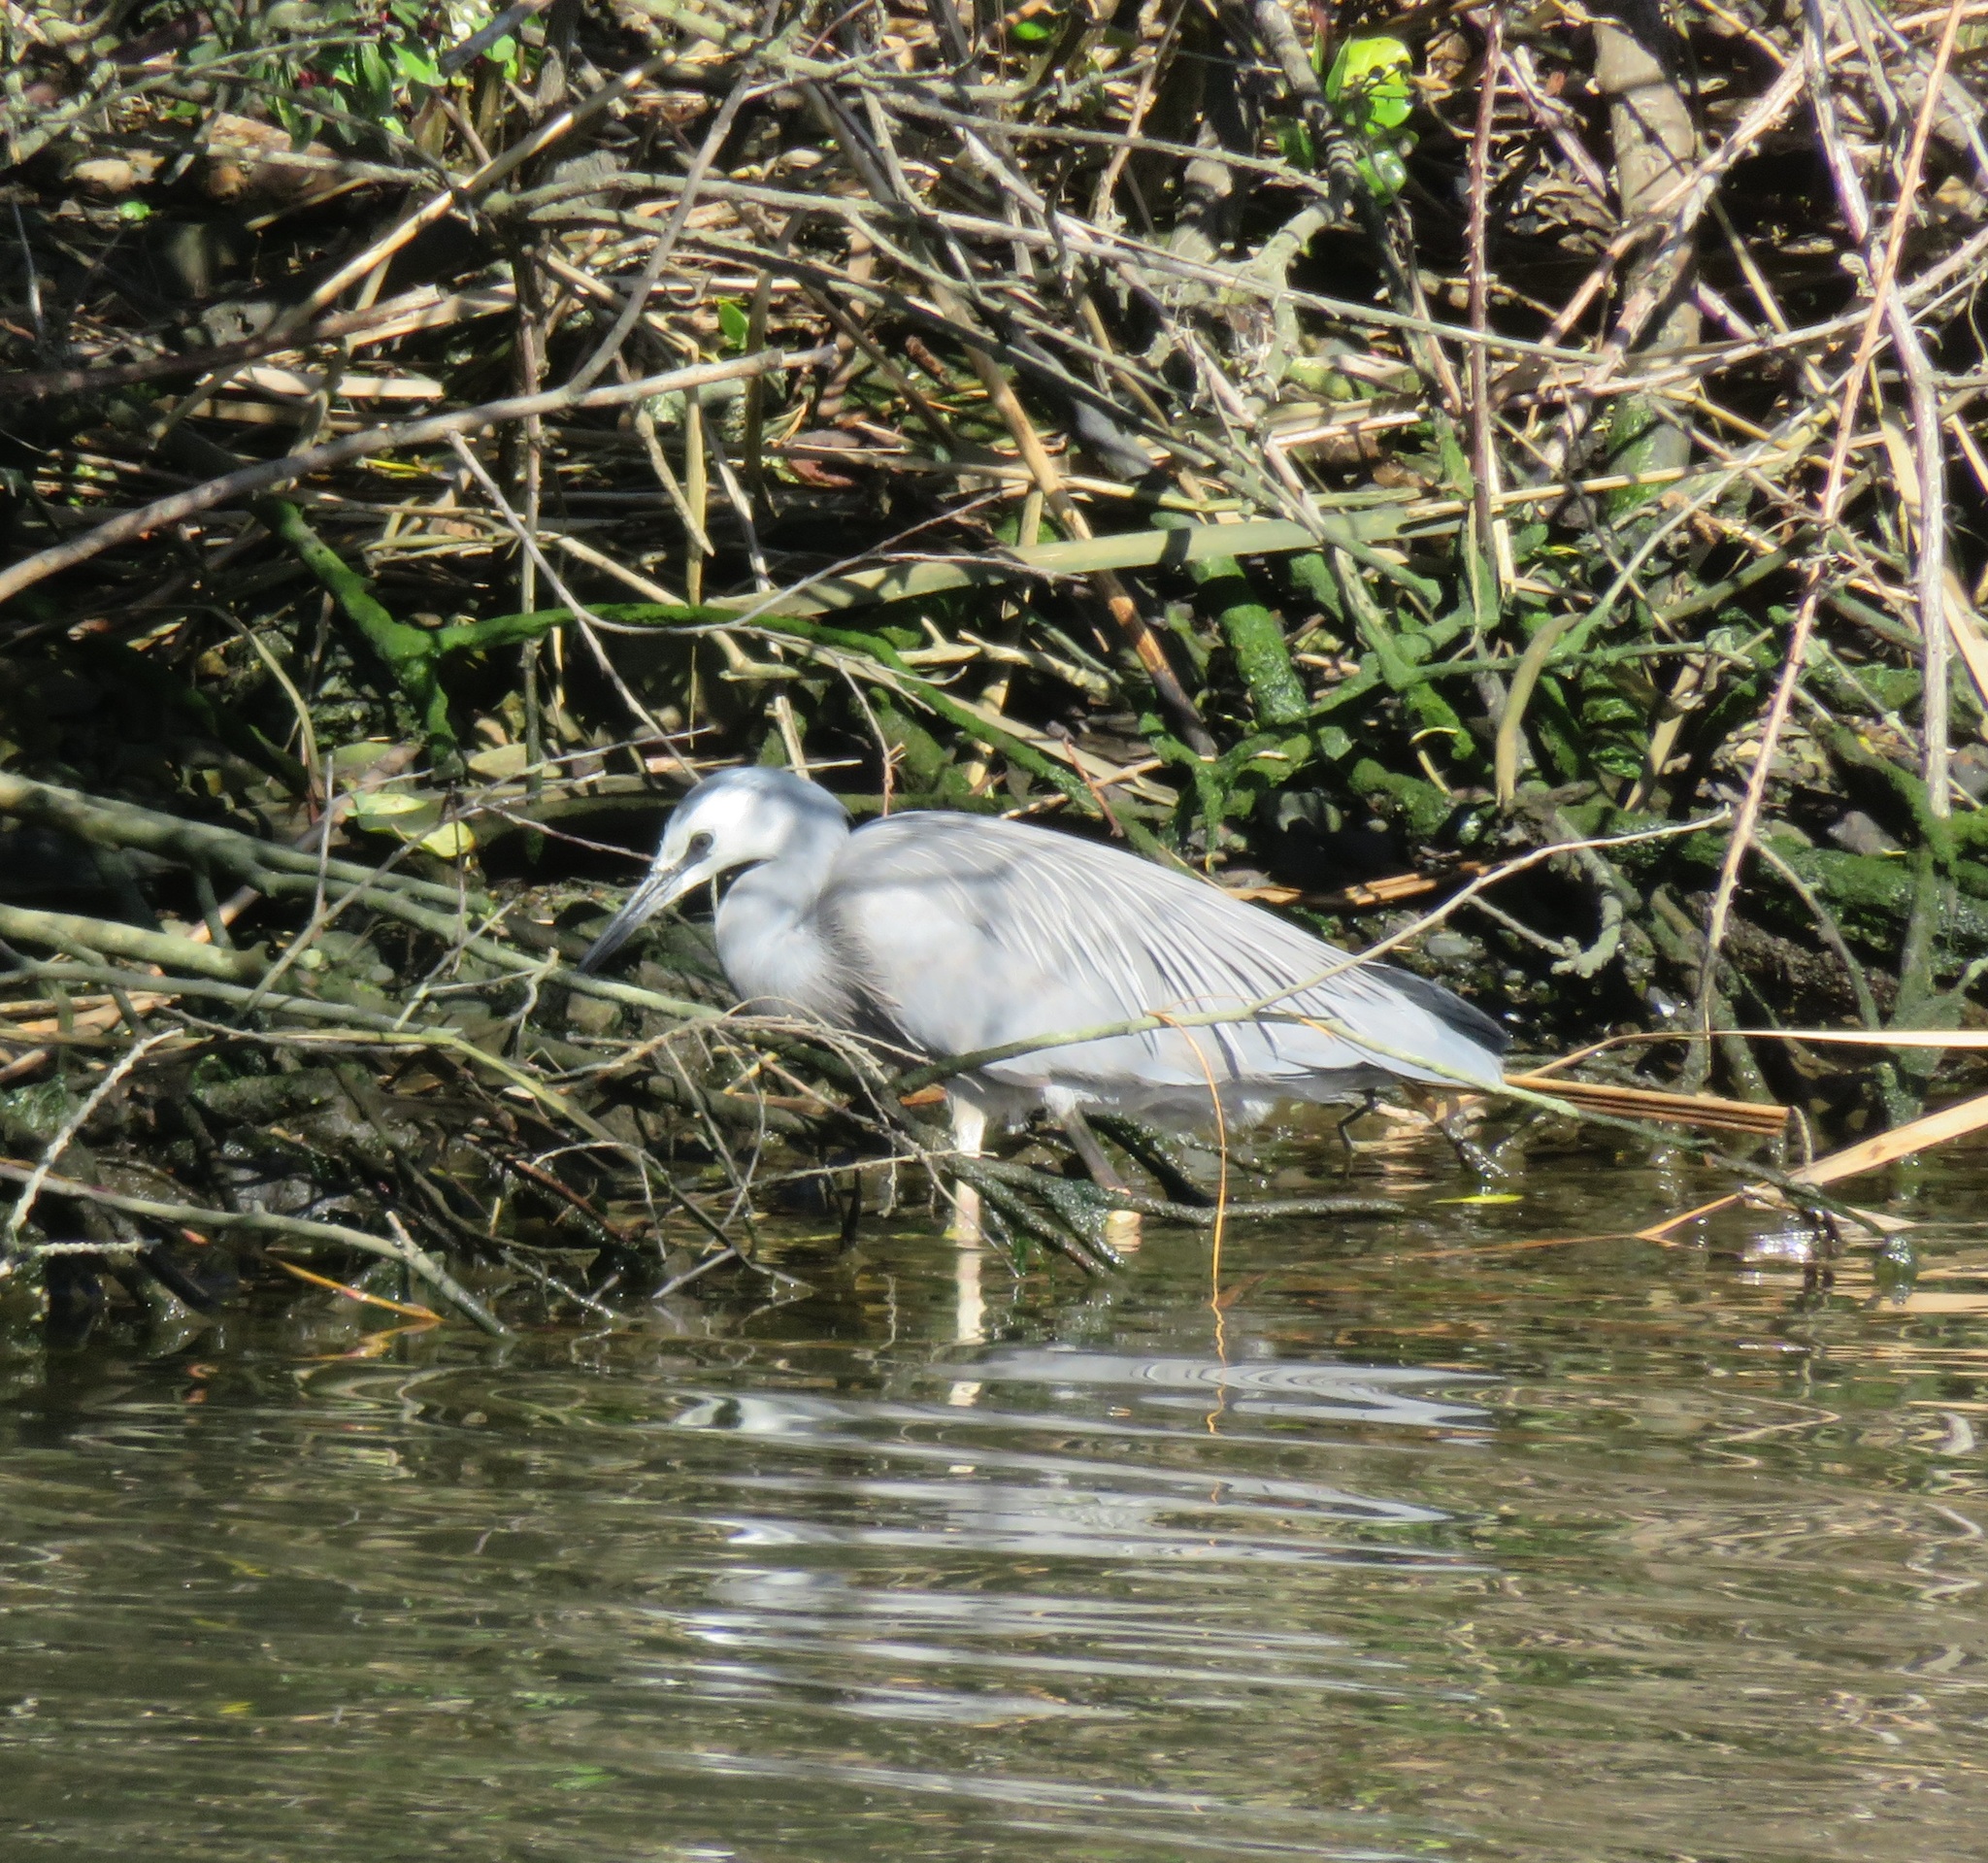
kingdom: Animalia
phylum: Chordata
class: Aves
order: Pelecaniformes
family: Ardeidae
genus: Egretta
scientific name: Egretta novaehollandiae
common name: White-faced heron
